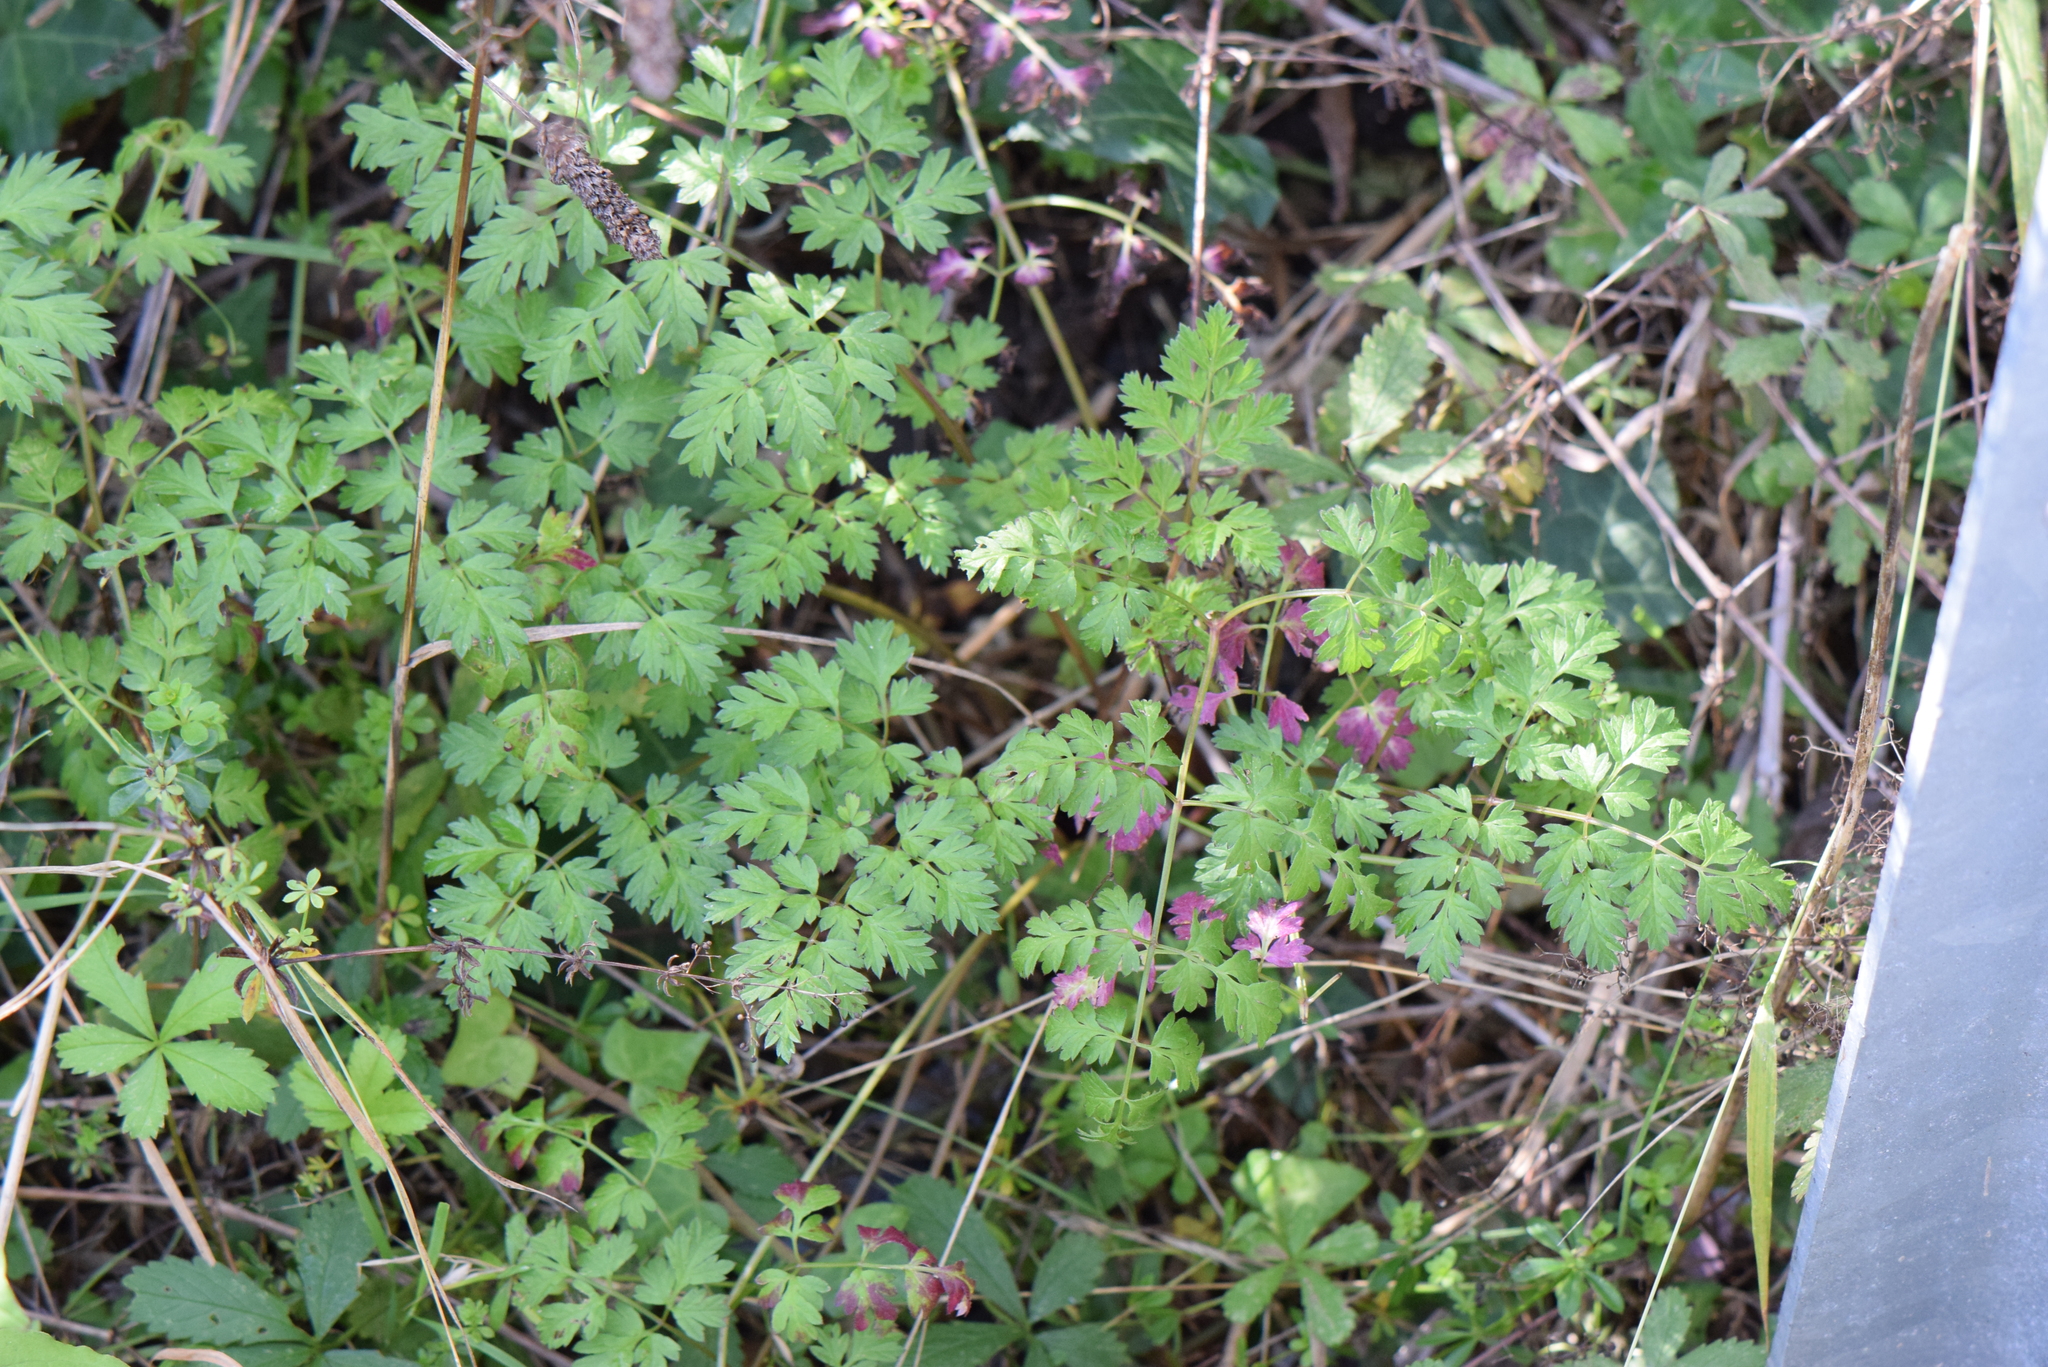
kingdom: Plantae
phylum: Tracheophyta
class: Magnoliopsida
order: Geraniales
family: Geraniaceae
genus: Geranium
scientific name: Geranium robertianum
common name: Herb-robert
